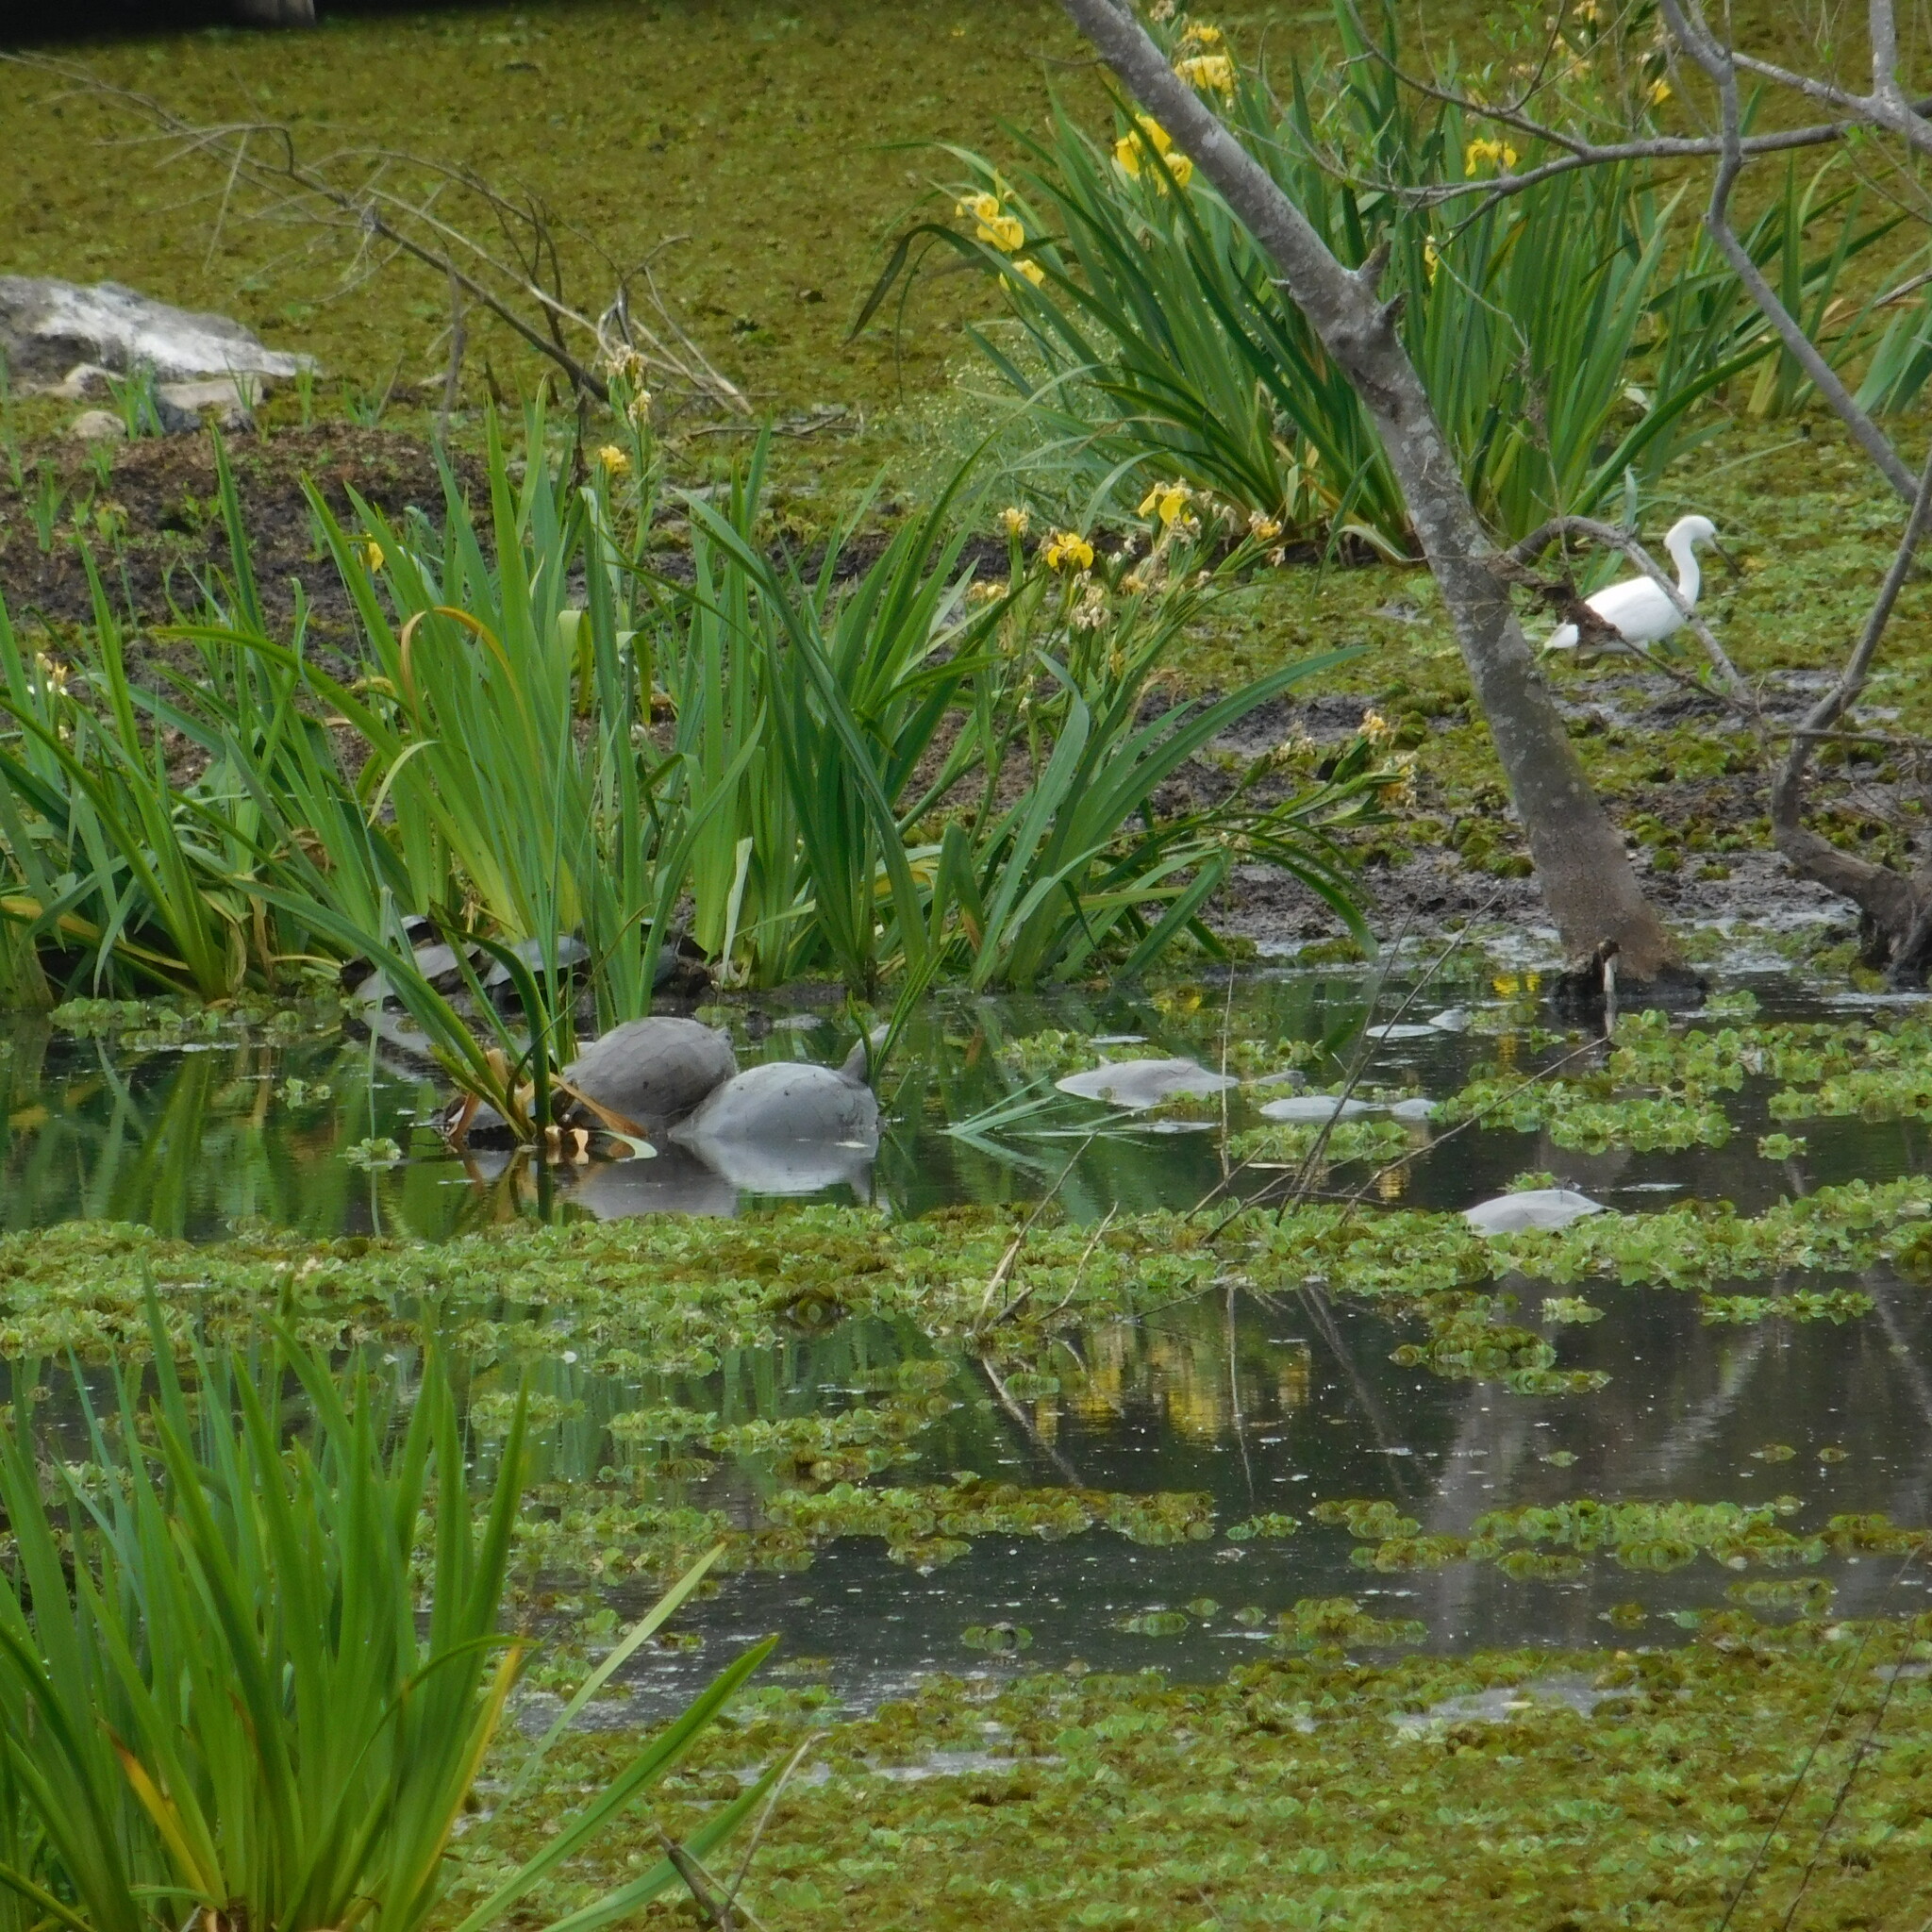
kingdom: Animalia
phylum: Chordata
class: Testudines
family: Chelidae
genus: Phrynops
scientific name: Phrynops hilarii
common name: Side-necked turtle of saint hillaire
